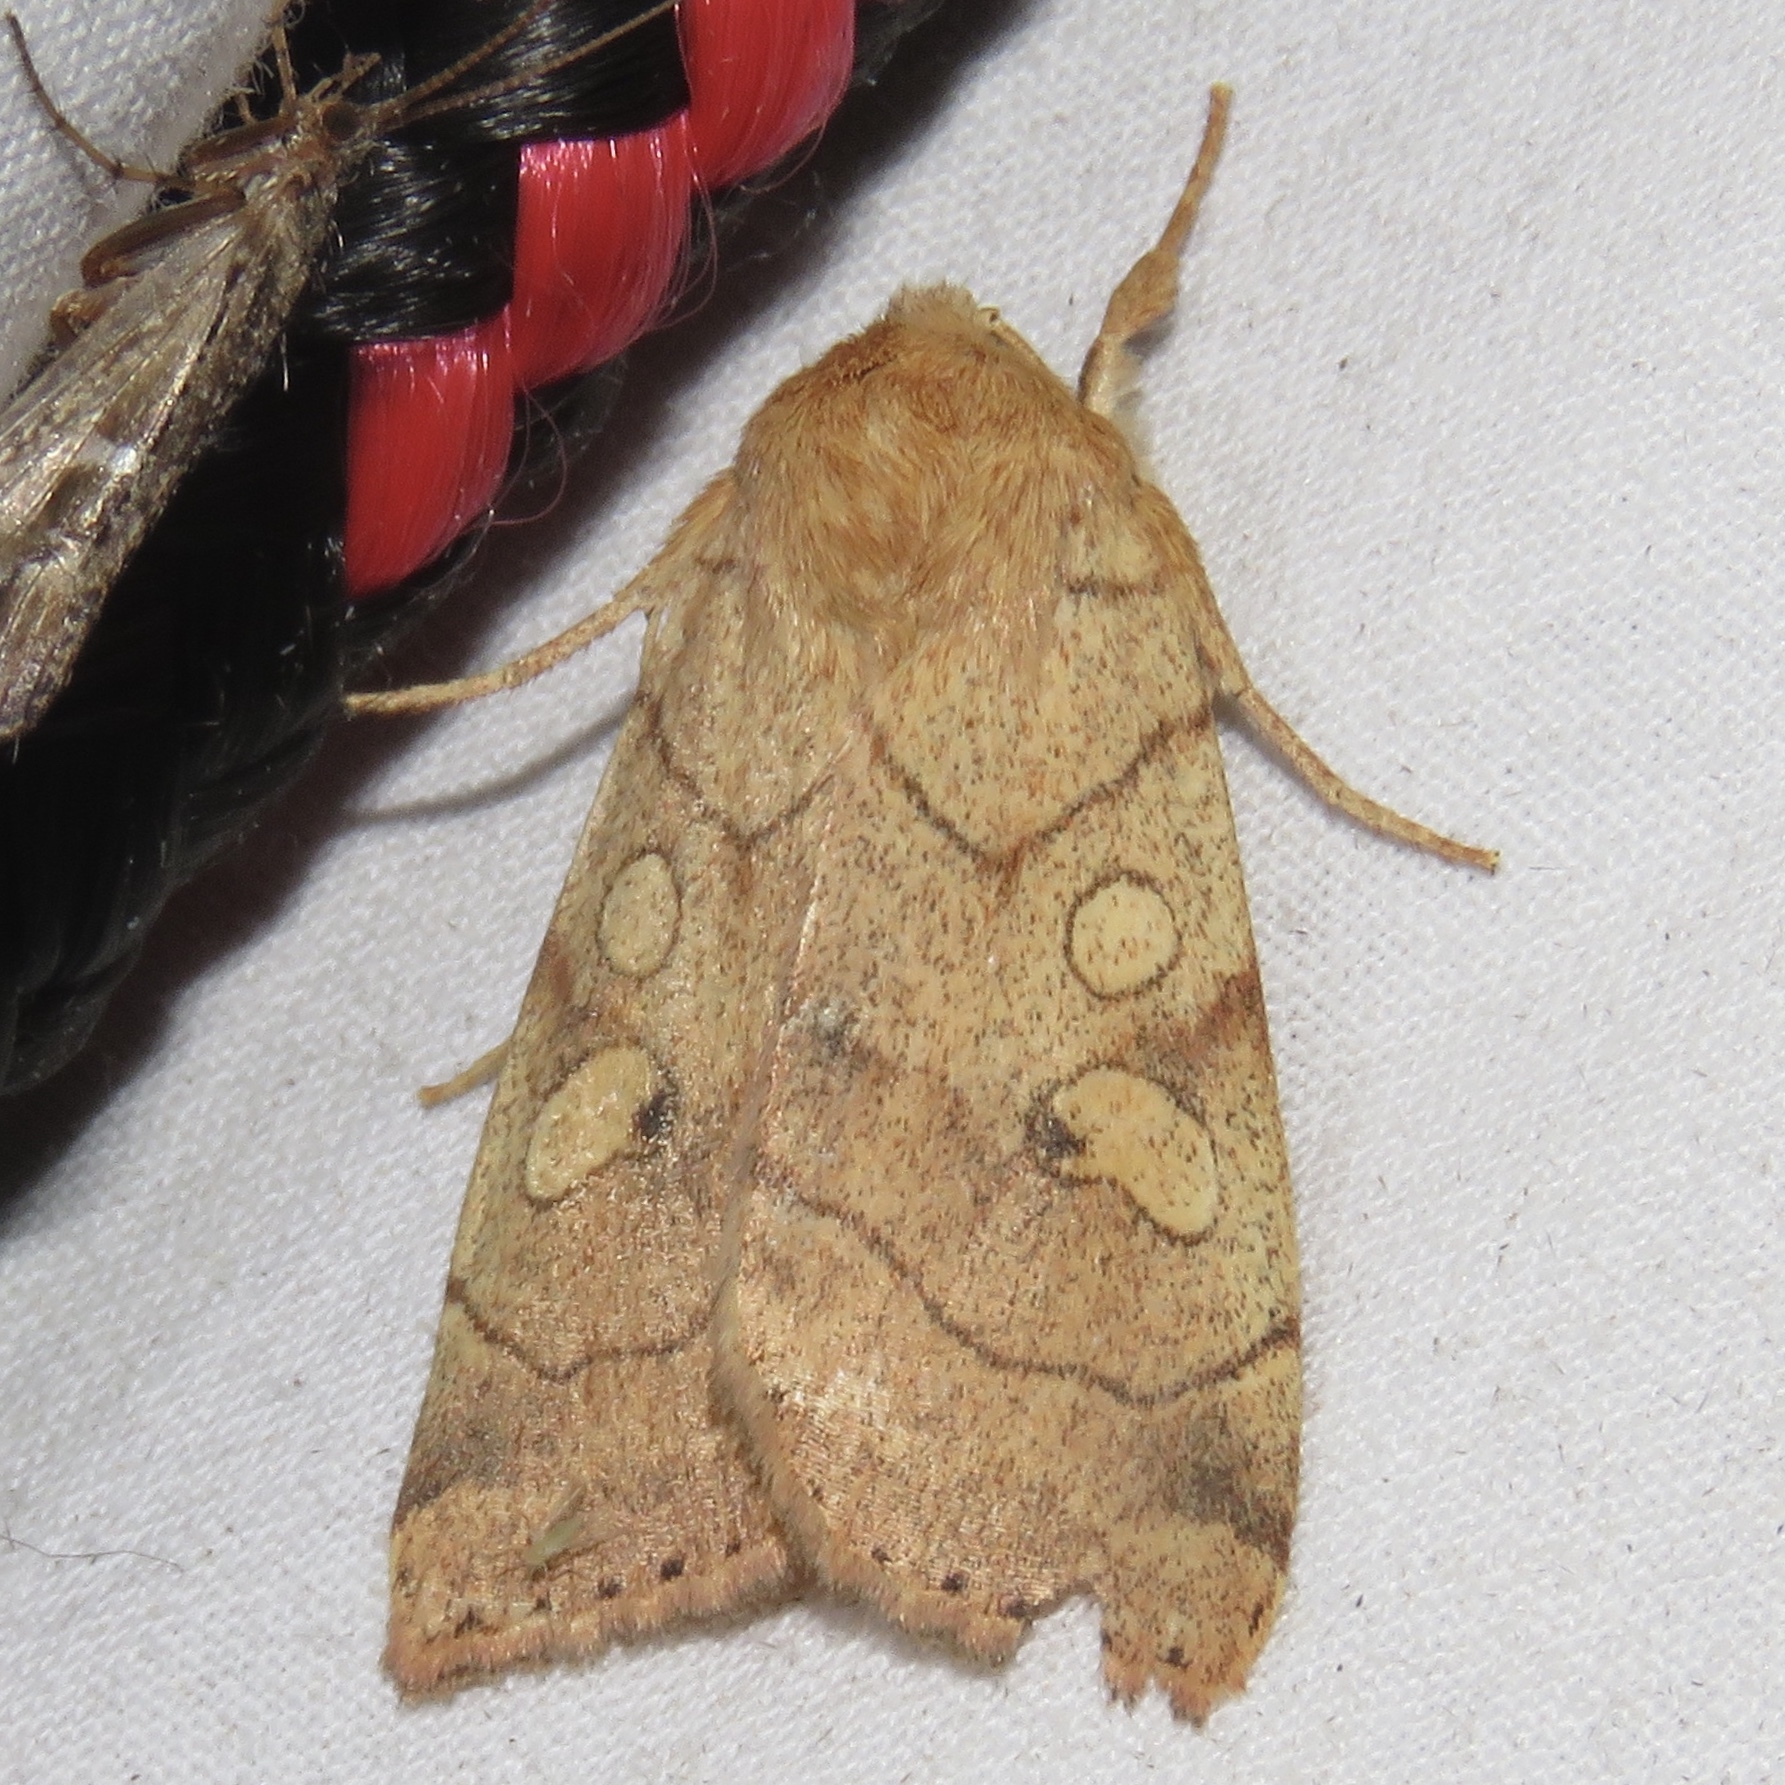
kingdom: Animalia
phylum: Arthropoda
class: Insecta
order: Lepidoptera
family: Noctuidae
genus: Enargia
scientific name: Enargia decolor
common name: Aspen twoleaf tier moth
